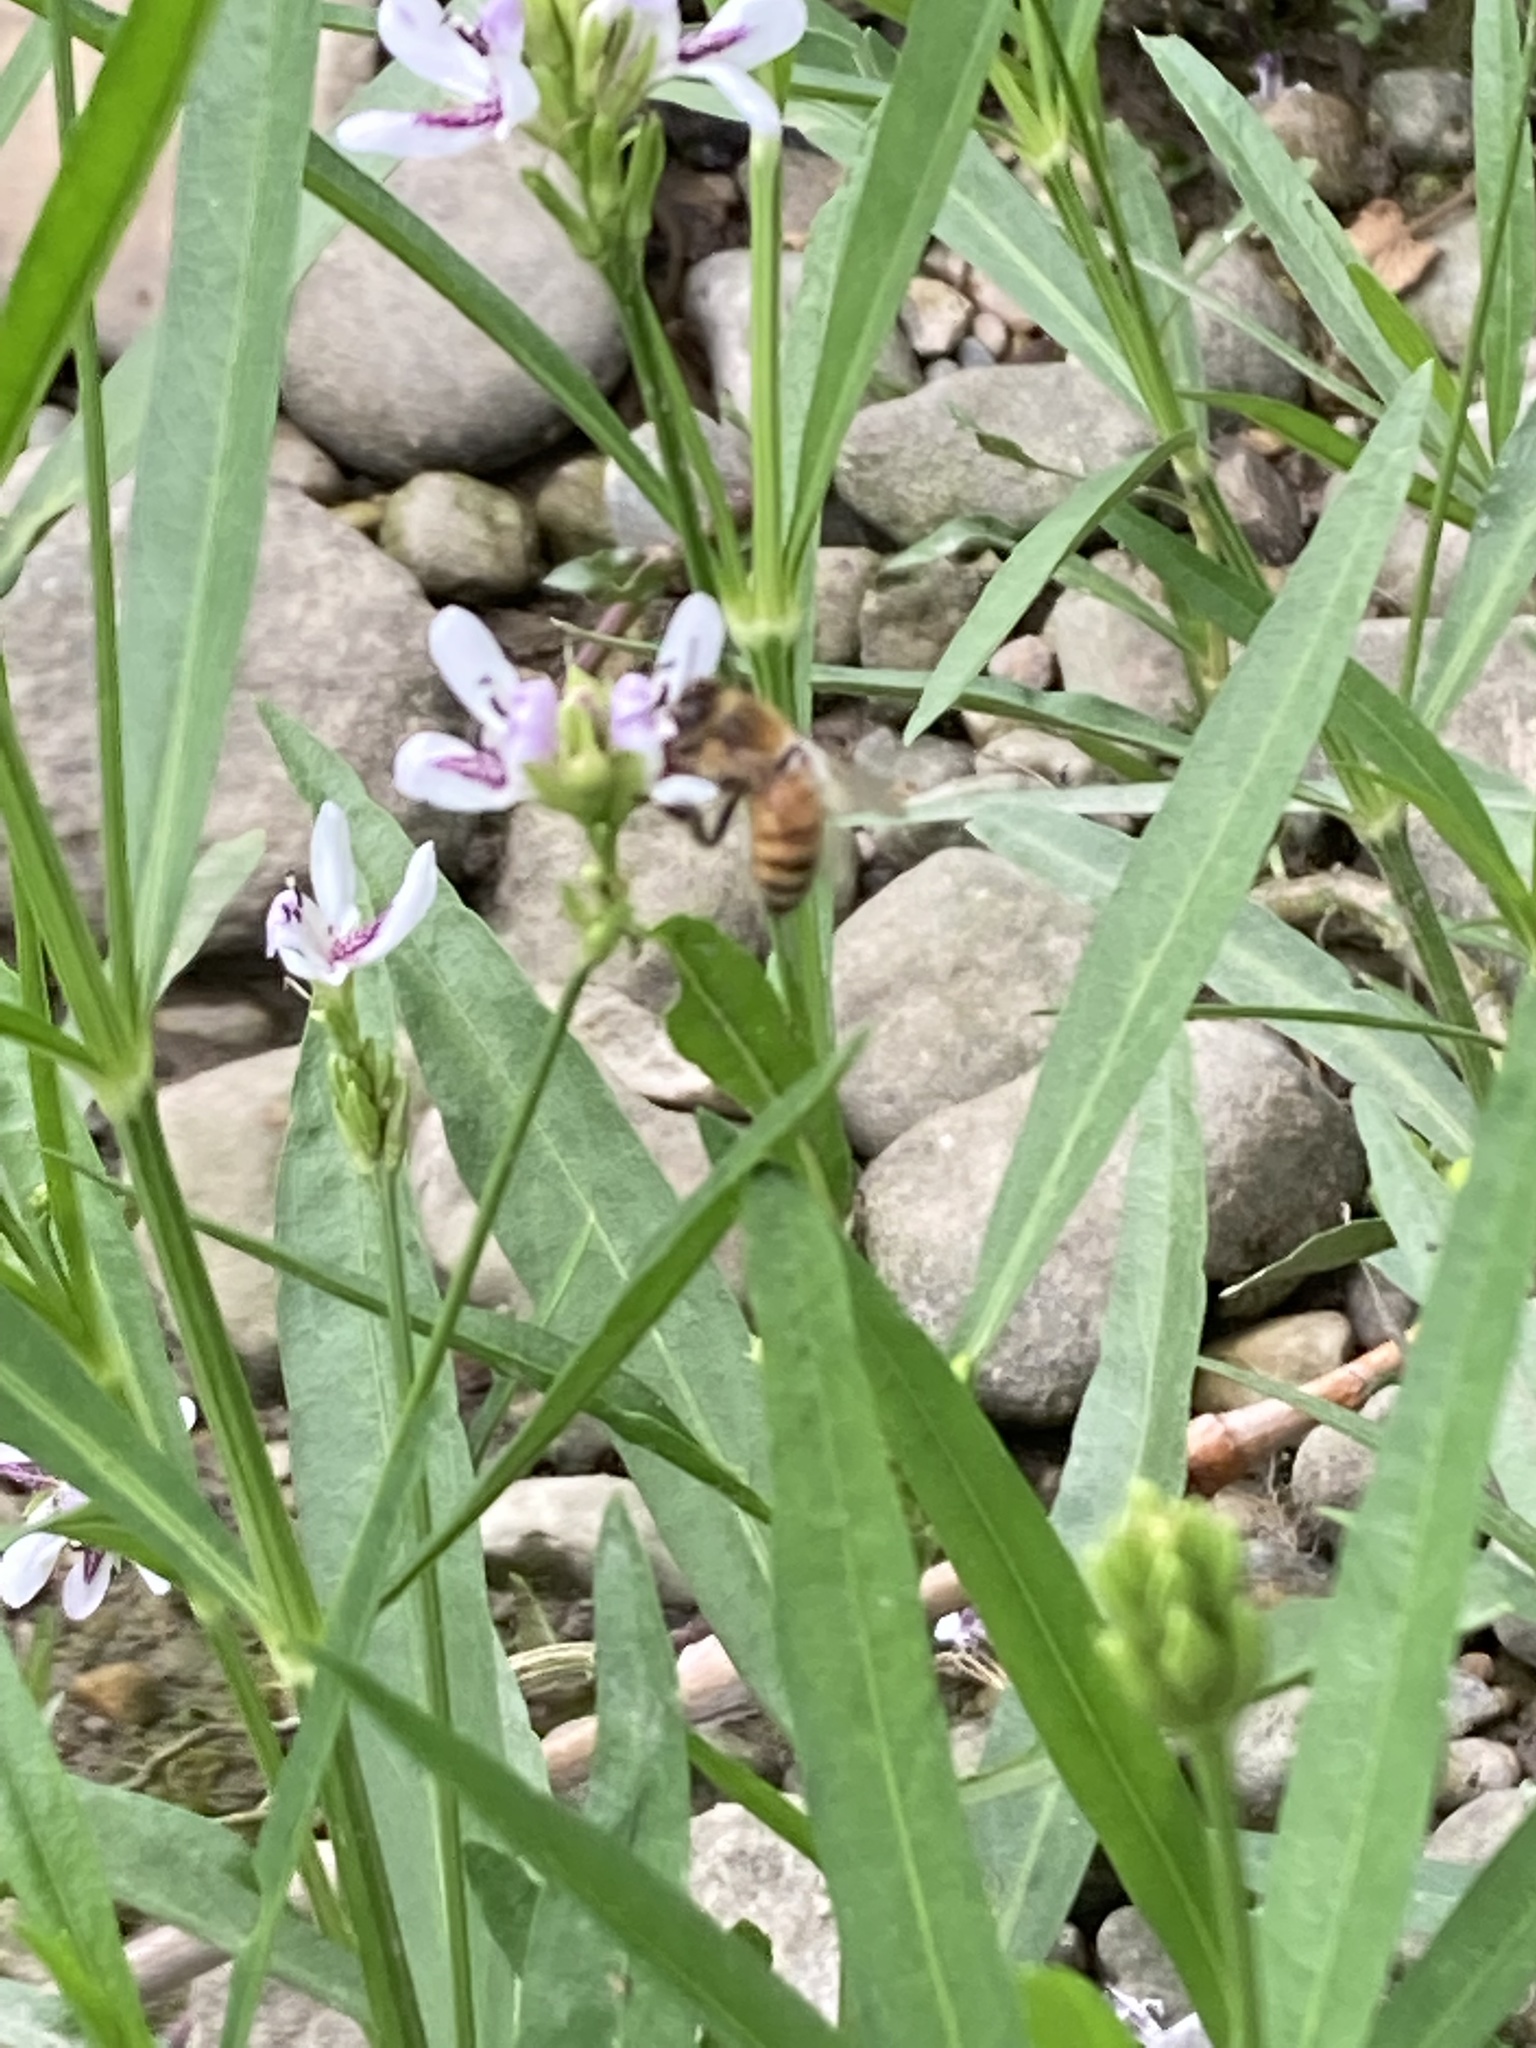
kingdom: Animalia
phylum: Arthropoda
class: Insecta
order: Hymenoptera
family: Apidae
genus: Apis
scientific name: Apis mellifera
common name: Honey bee
